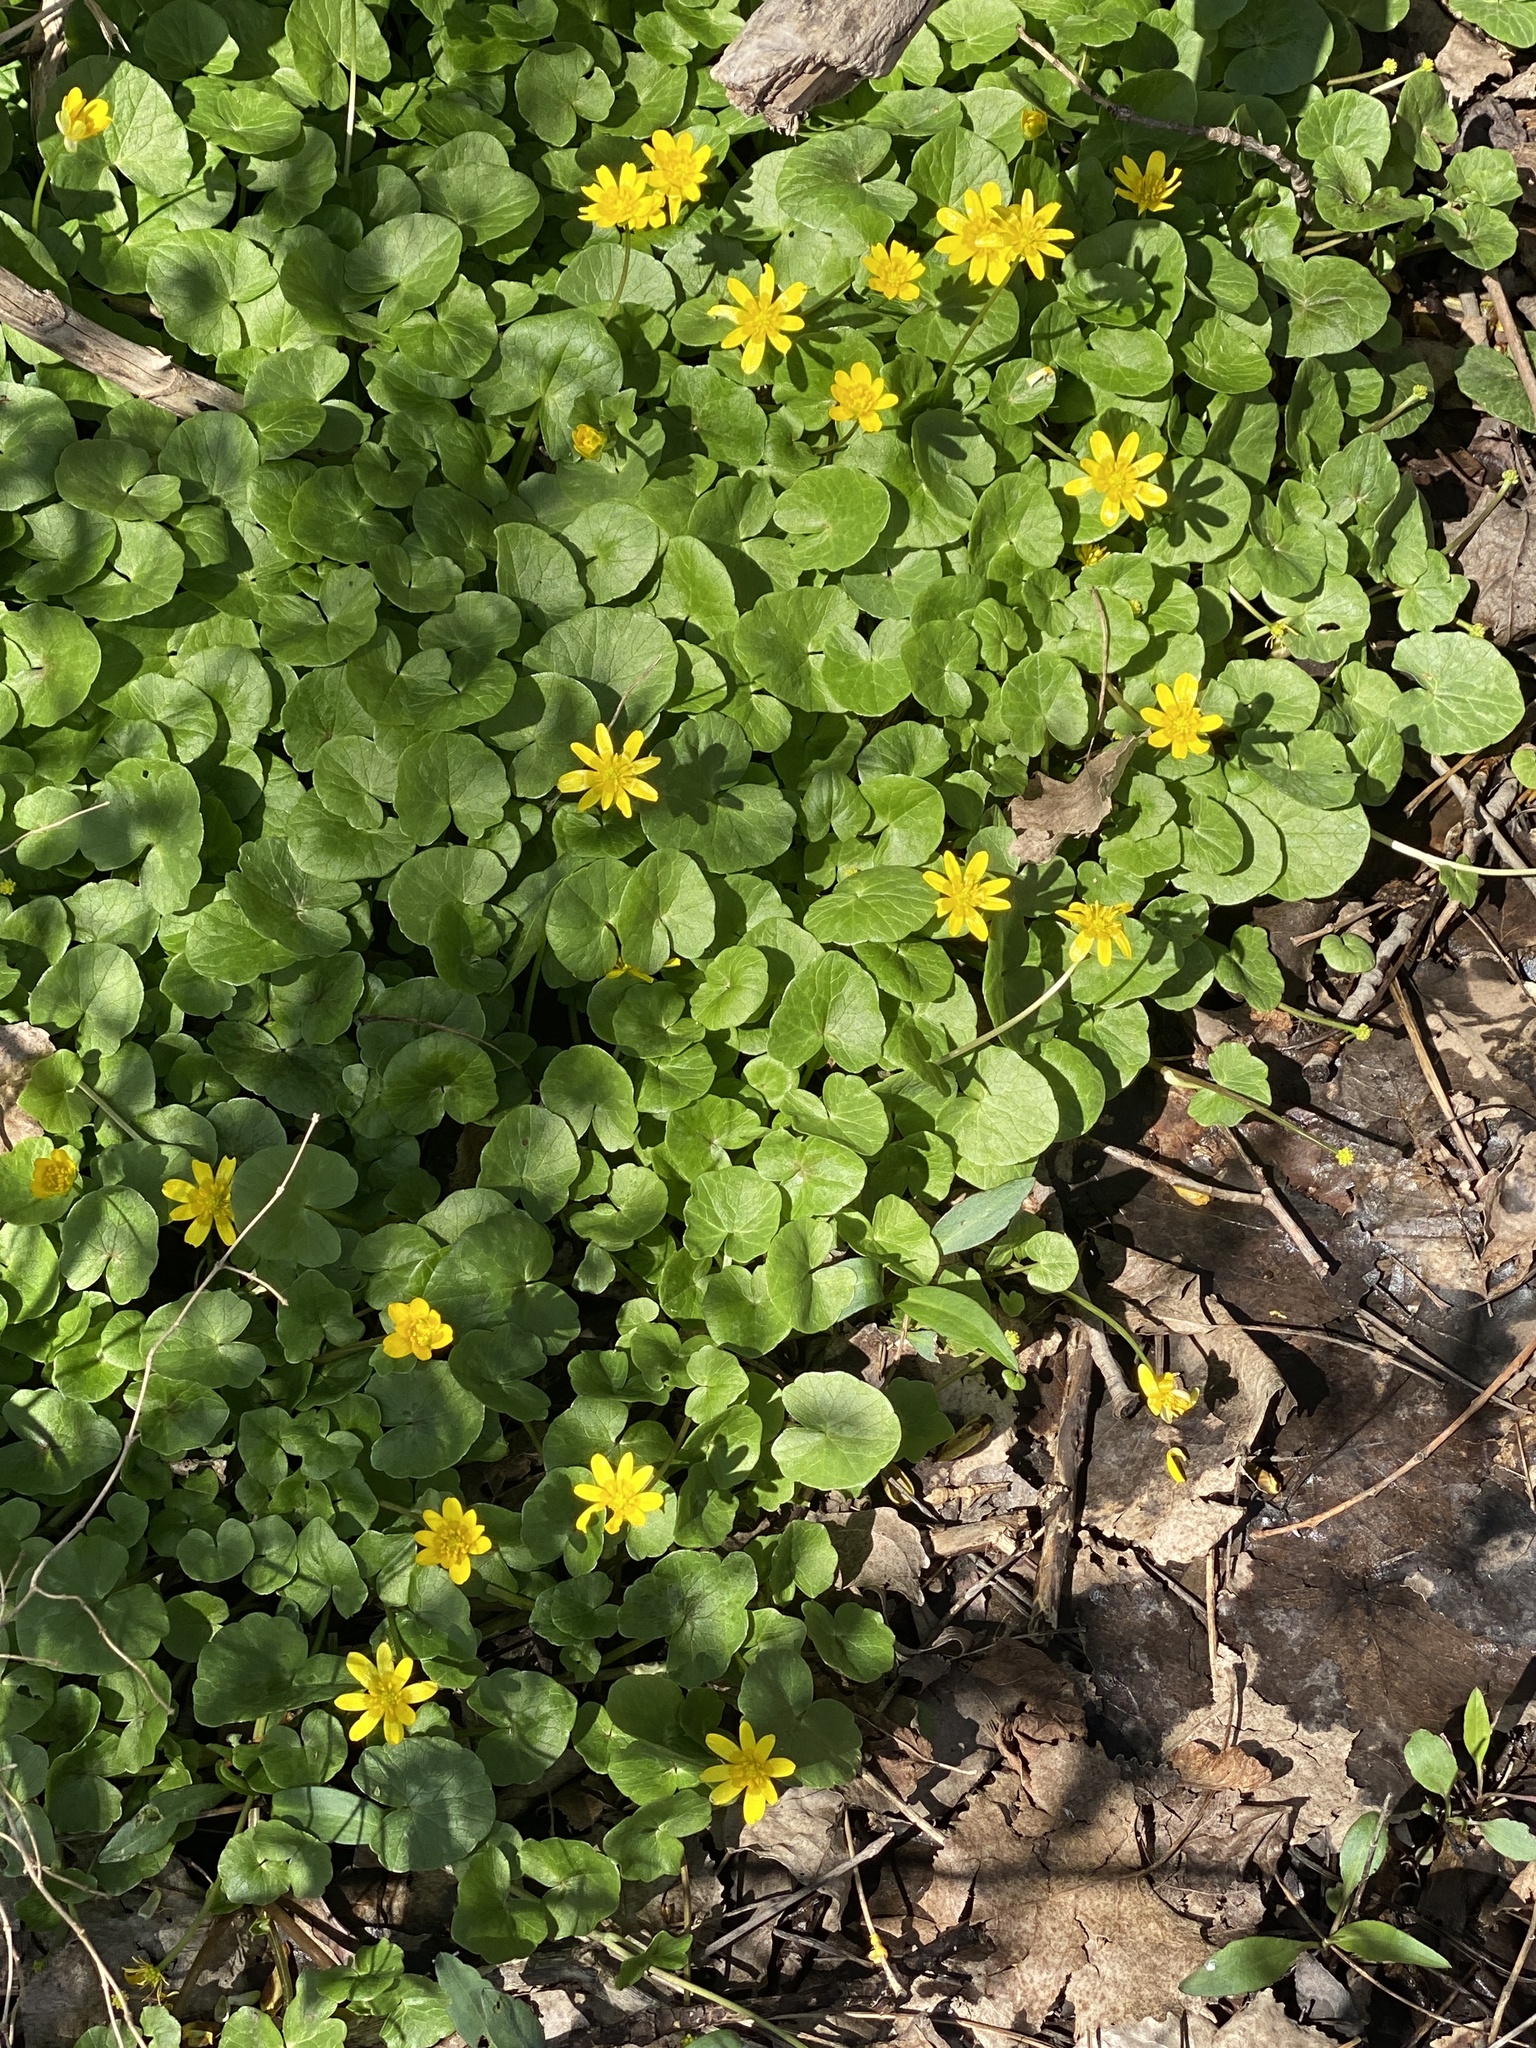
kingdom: Plantae
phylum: Tracheophyta
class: Magnoliopsida
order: Ranunculales
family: Ranunculaceae
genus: Ficaria
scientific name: Ficaria verna
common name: Lesser celandine
